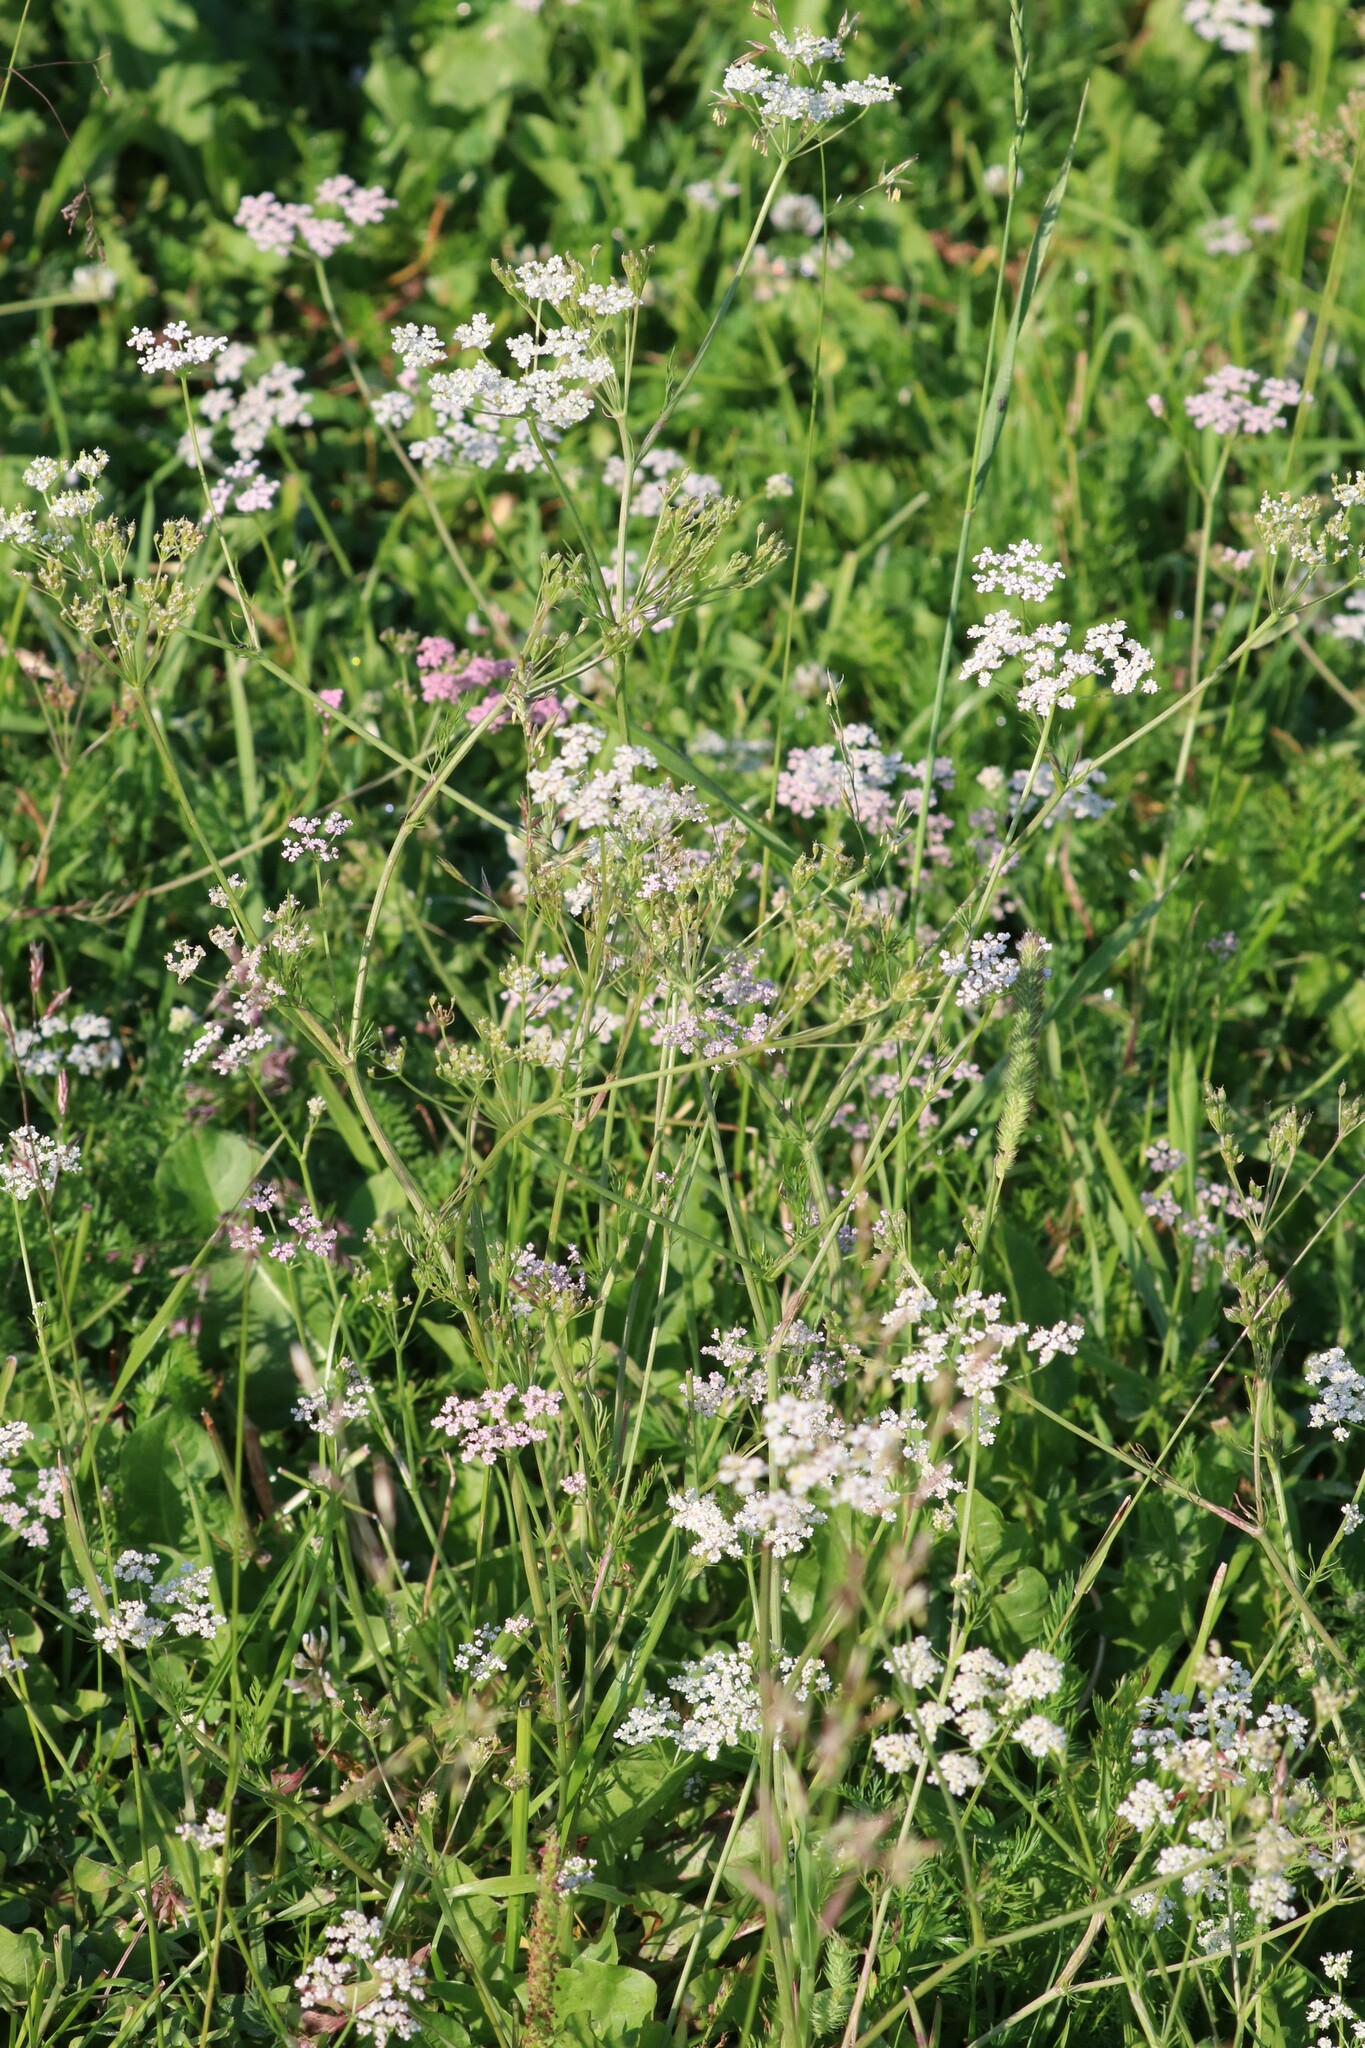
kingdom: Plantae
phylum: Tracheophyta
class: Magnoliopsida
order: Apiales
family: Apiaceae
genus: Carum
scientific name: Carum carvi
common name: Caraway
